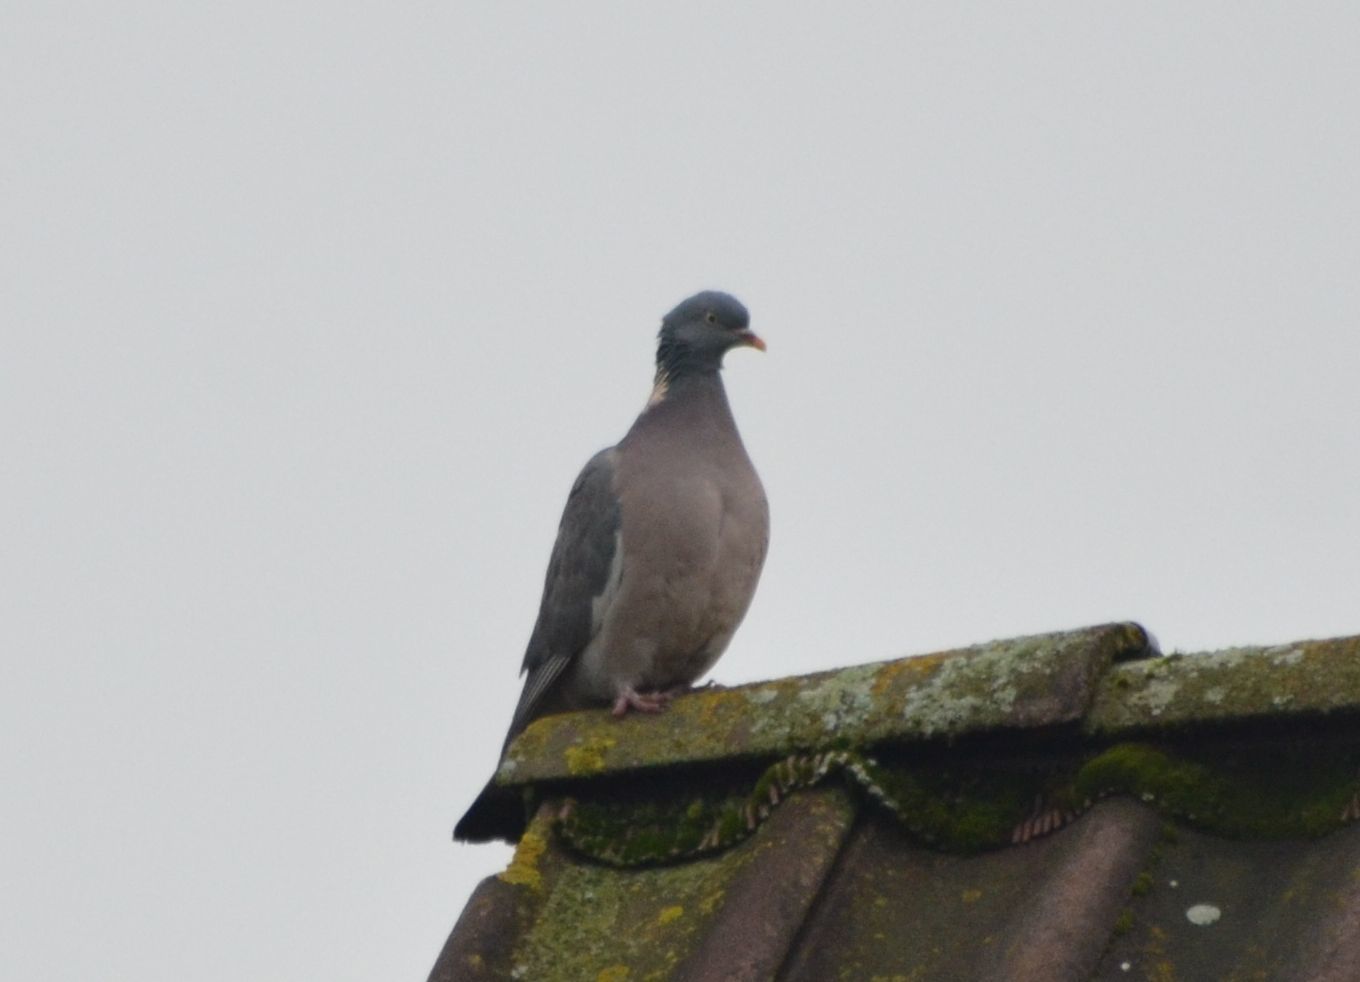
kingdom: Animalia
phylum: Chordata
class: Aves
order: Columbiformes
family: Columbidae
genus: Columba
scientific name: Columba palumbus
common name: Common wood pigeon
